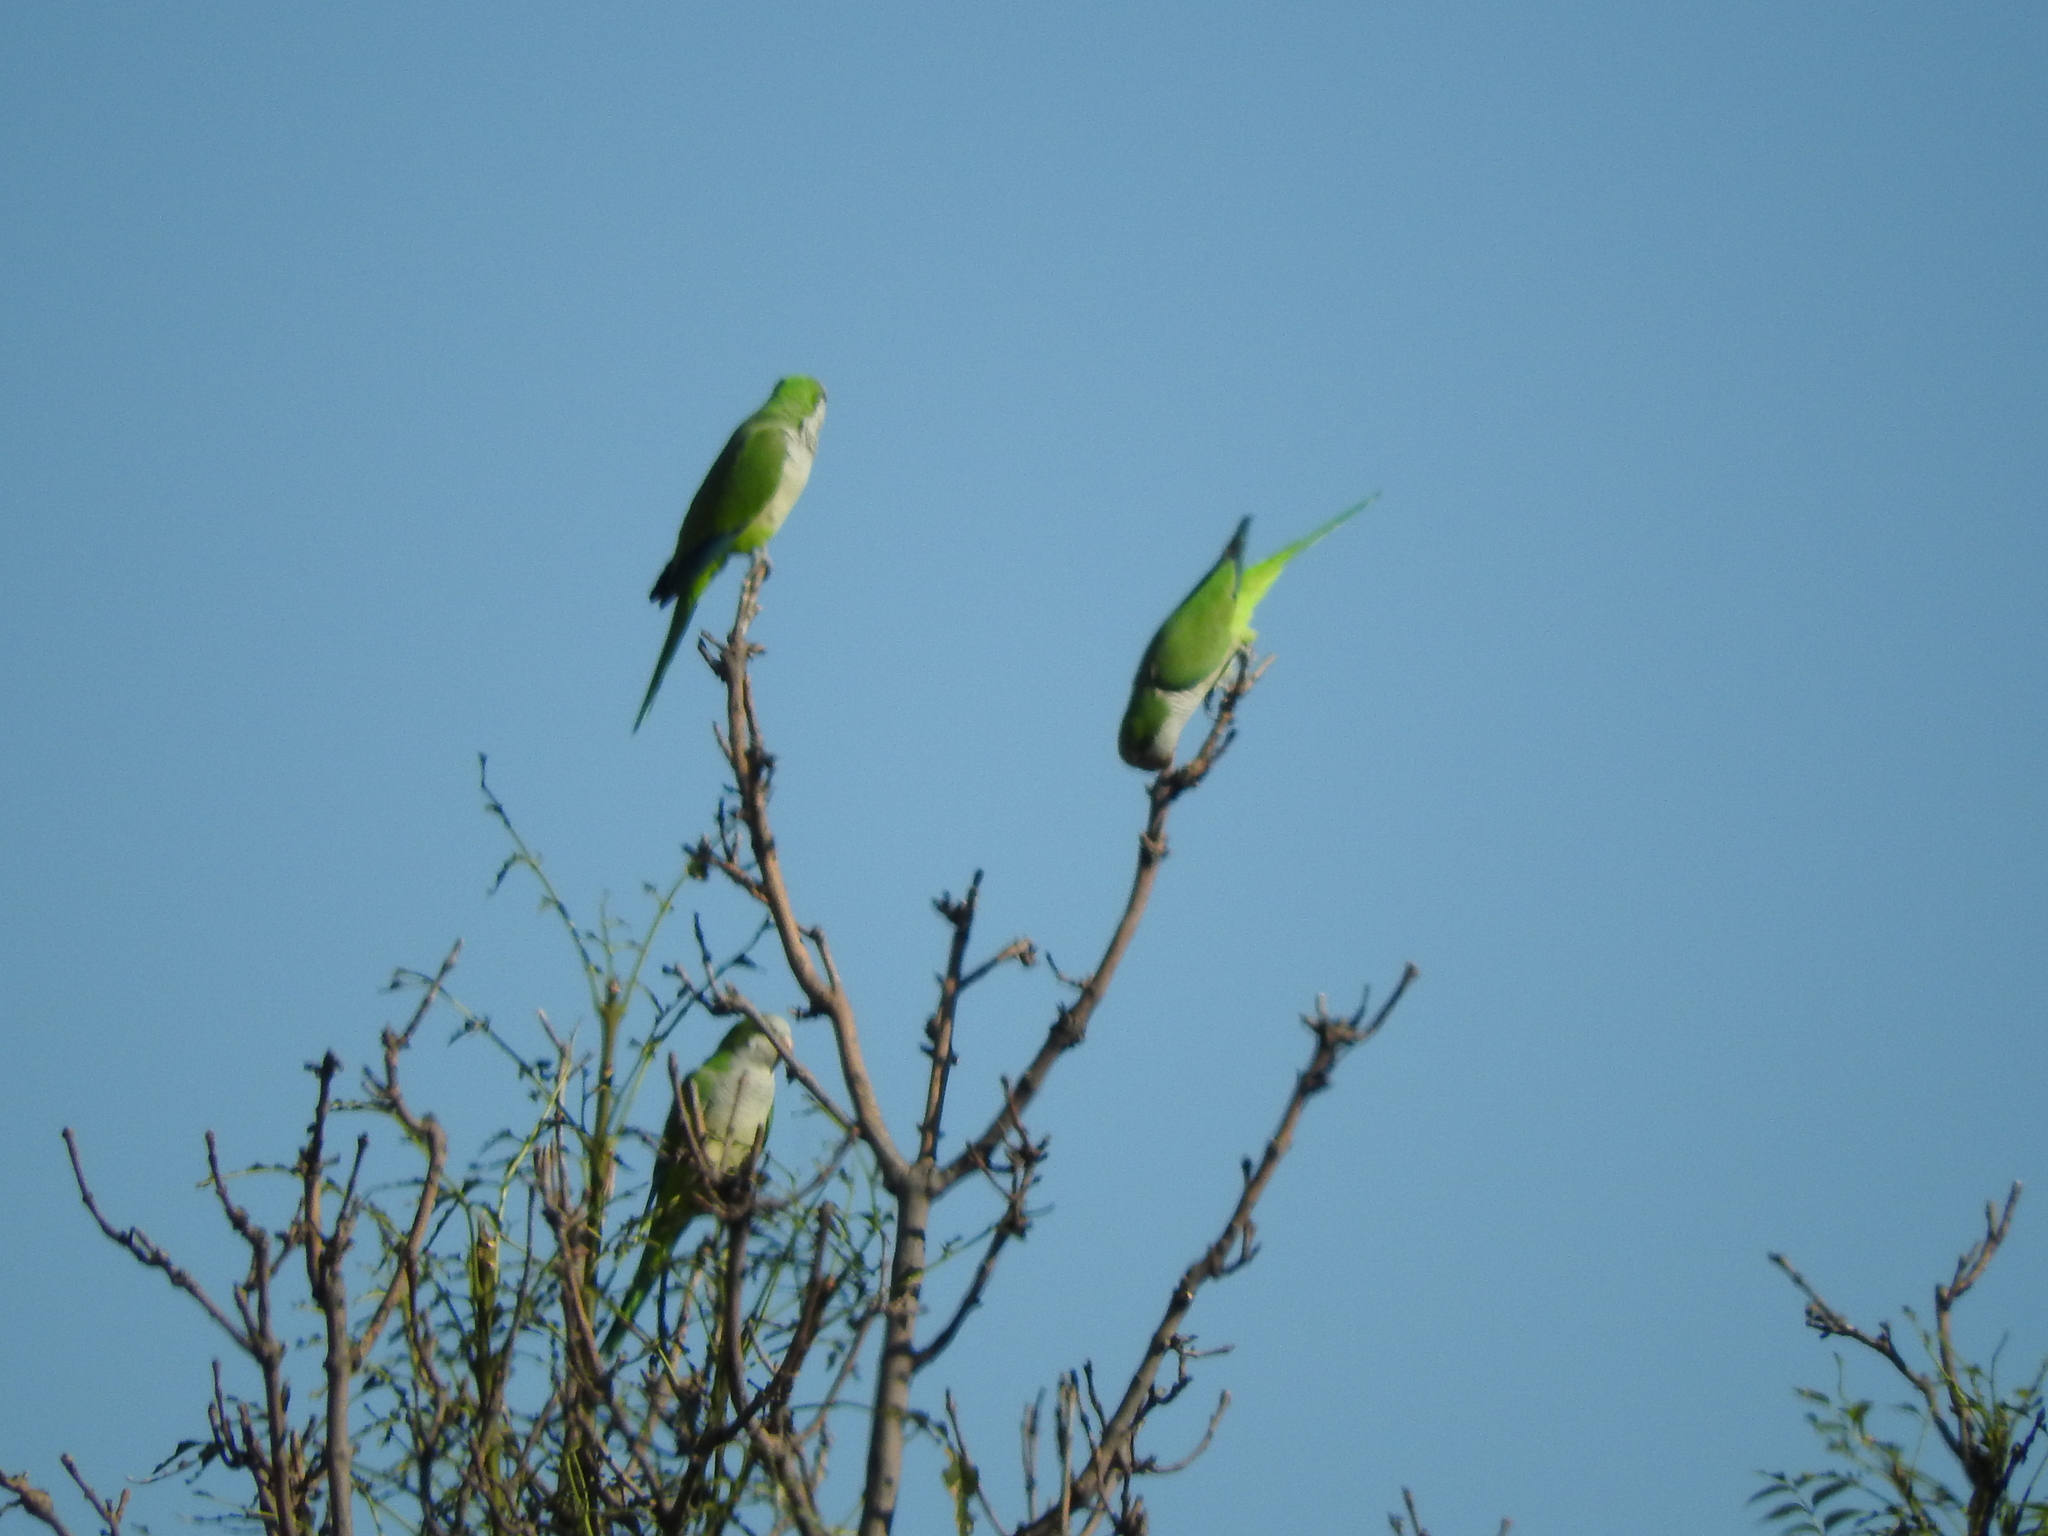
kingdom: Animalia
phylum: Chordata
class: Aves
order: Psittaciformes
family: Psittacidae
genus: Myiopsitta
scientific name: Myiopsitta monachus
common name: Monk parakeet
